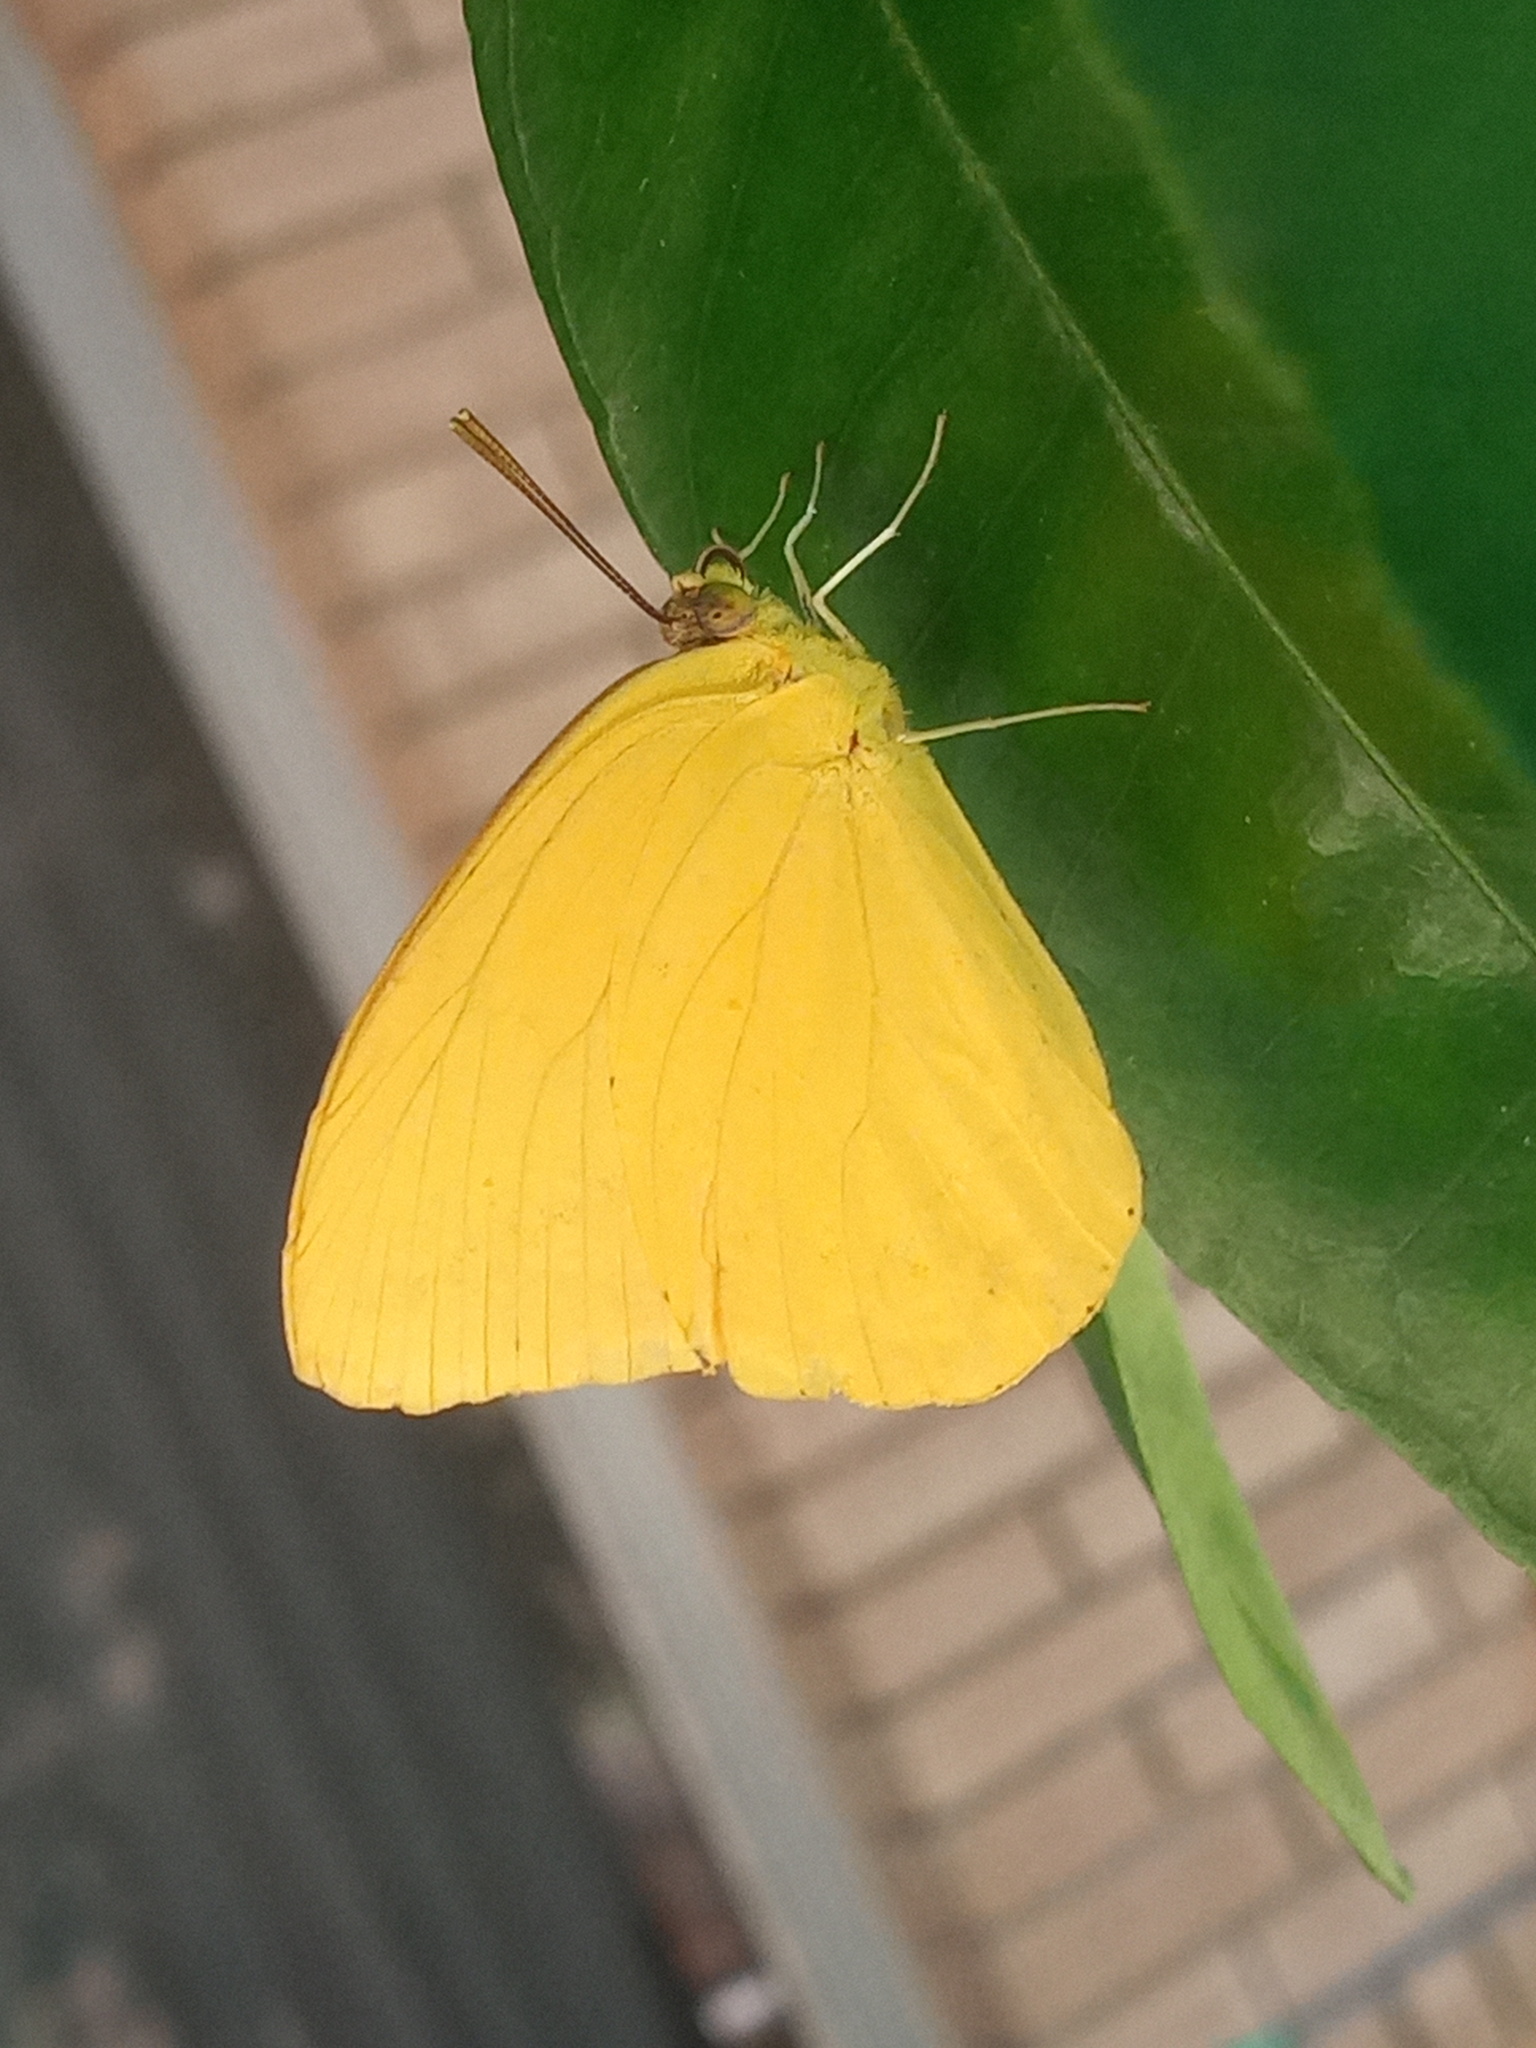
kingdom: Animalia
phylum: Arthropoda
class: Insecta
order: Lepidoptera
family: Pieridae
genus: Phoebis
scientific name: Phoebis agarithe
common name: Large orange sulphur
